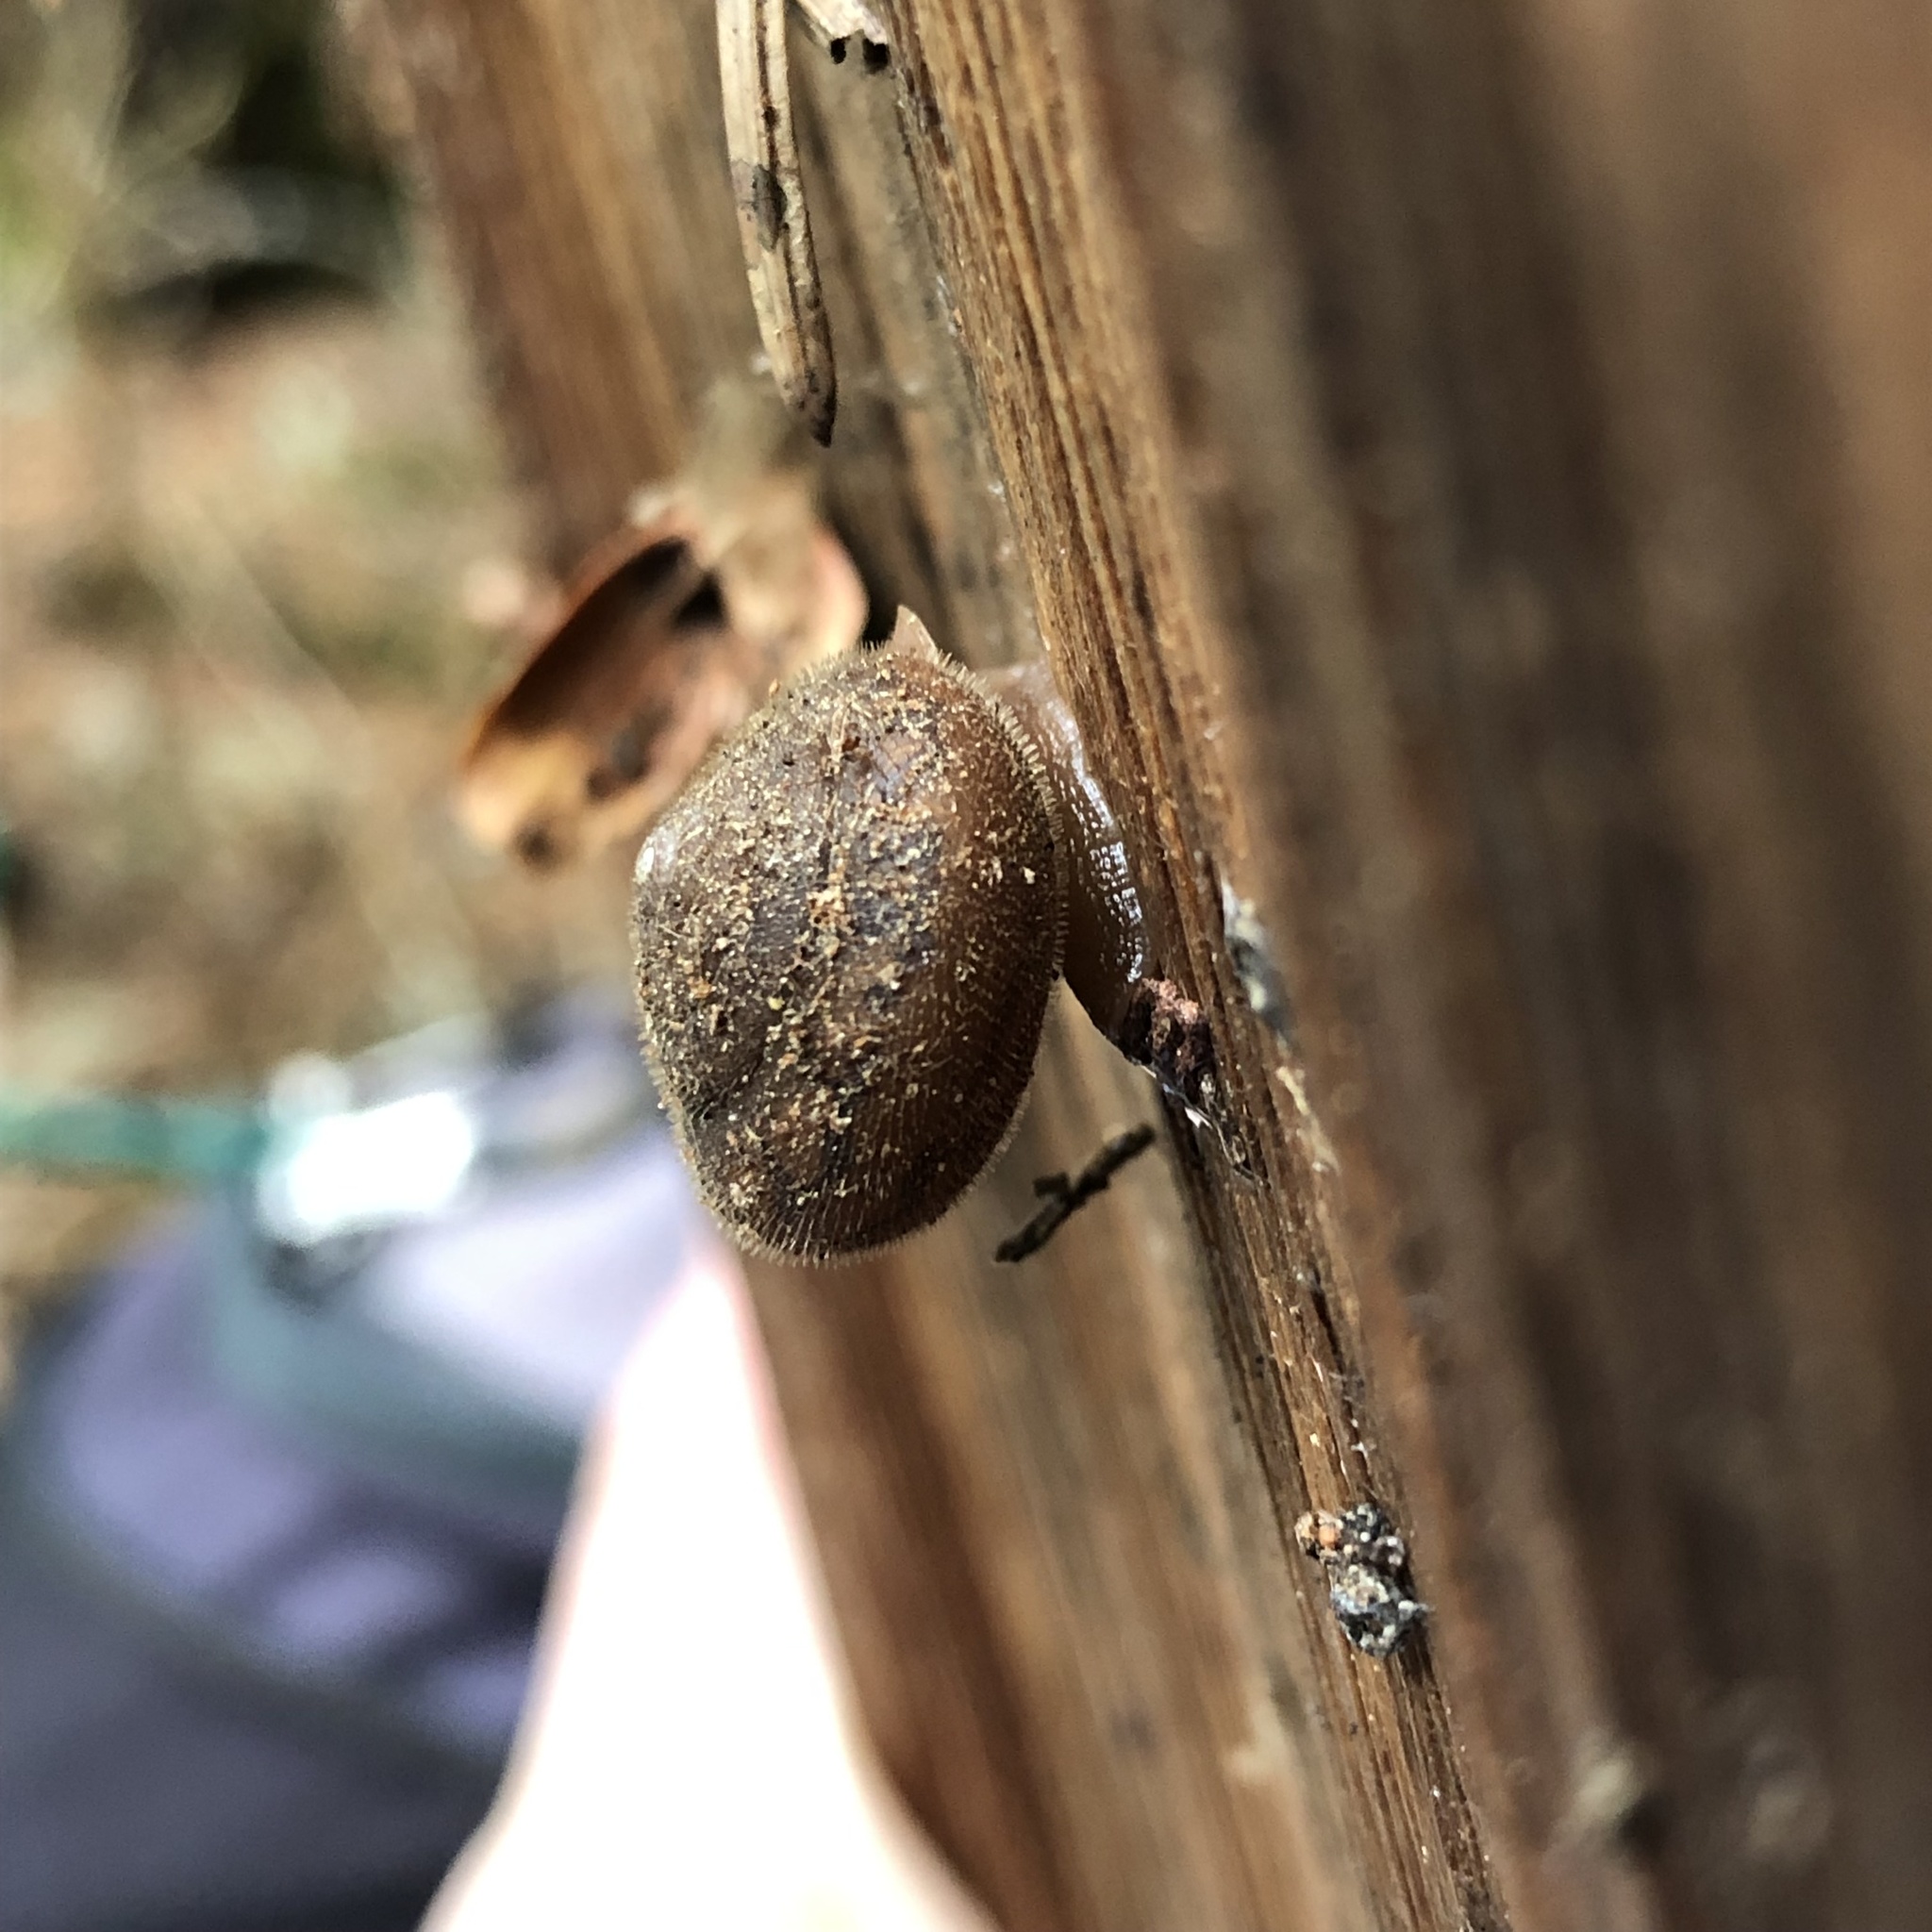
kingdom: Animalia
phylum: Mollusca
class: Gastropoda
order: Stylommatophora
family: Polygyridae
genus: Vespericola
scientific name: Vespericola columbianus
